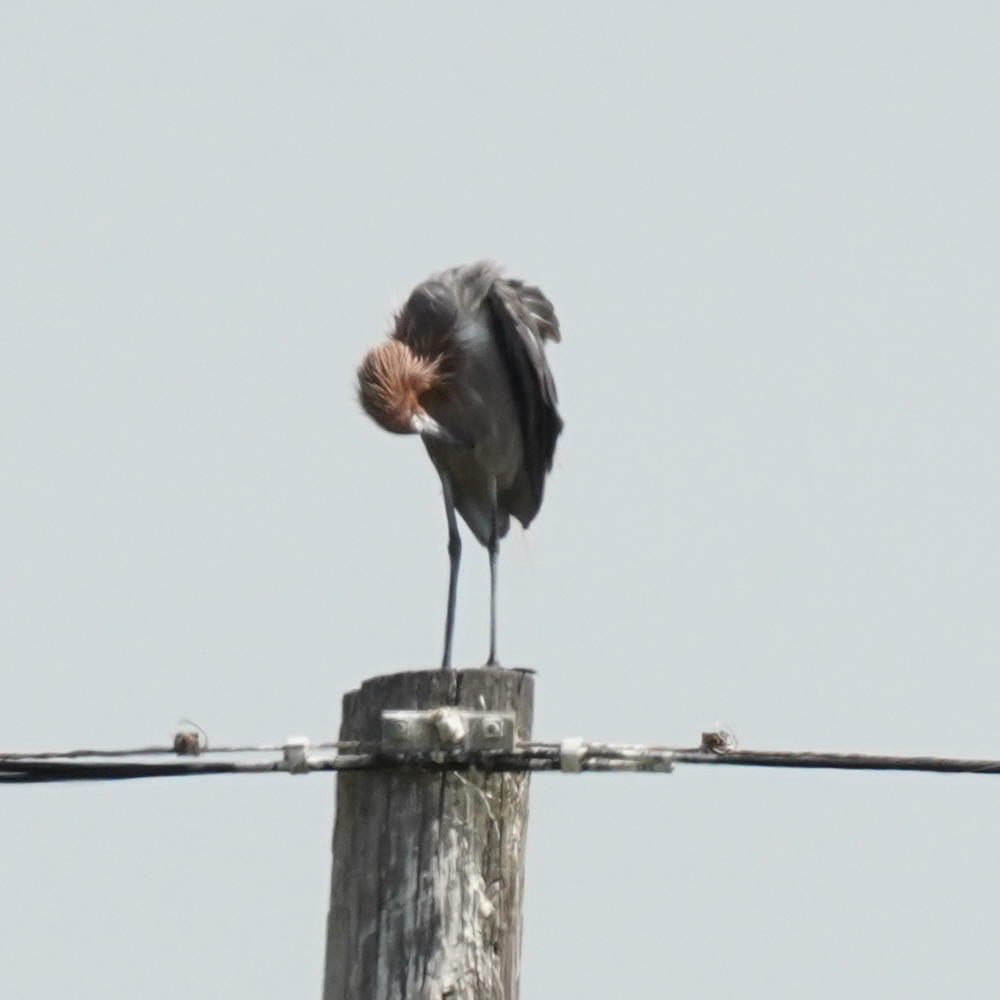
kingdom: Animalia
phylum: Chordata
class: Aves
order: Pelecaniformes
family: Ardeidae
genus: Egretta
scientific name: Egretta rufescens
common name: Reddish egret
